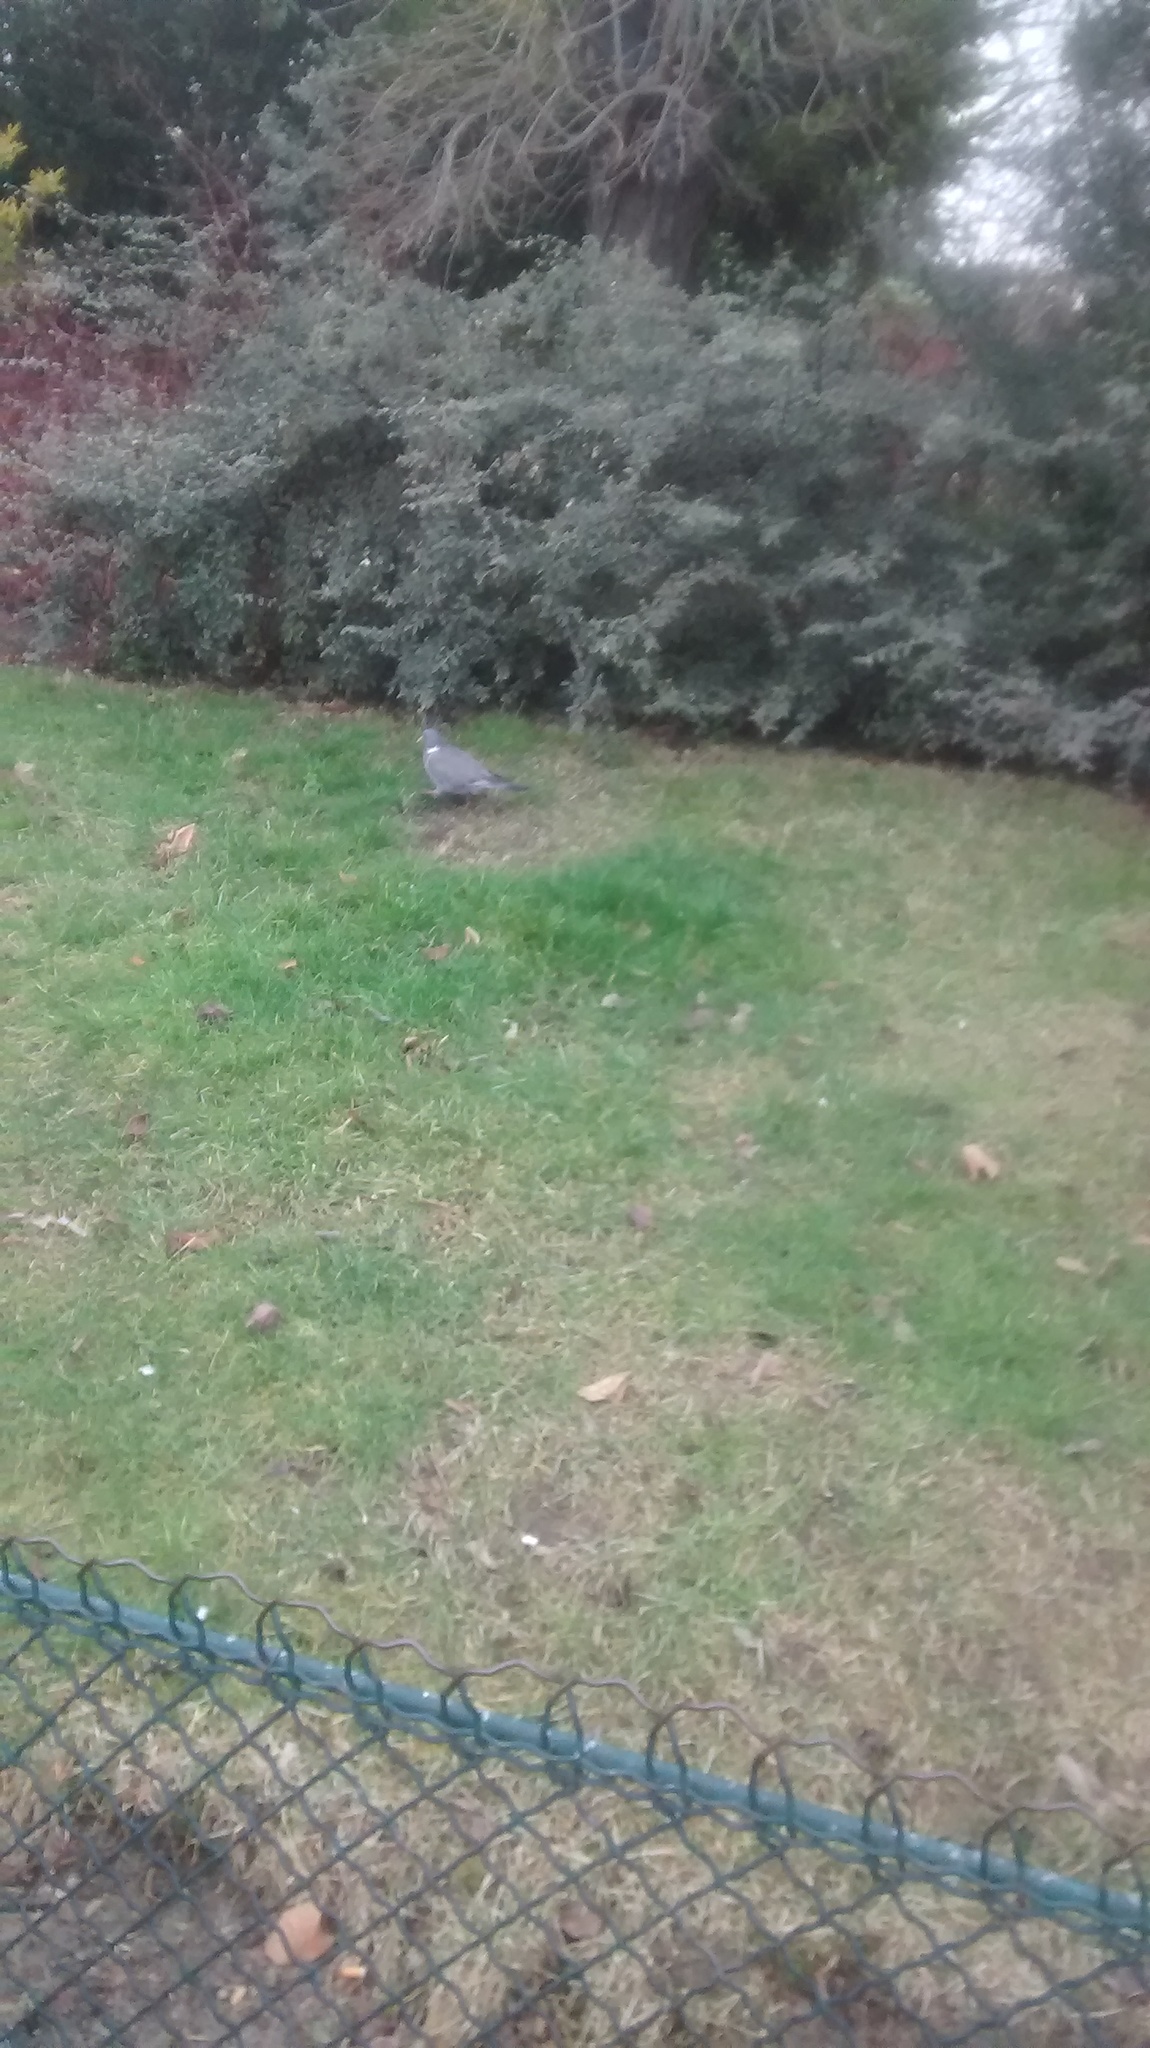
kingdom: Animalia
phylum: Chordata
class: Aves
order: Columbiformes
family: Columbidae
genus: Columba
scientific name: Columba palumbus
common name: Common wood pigeon
